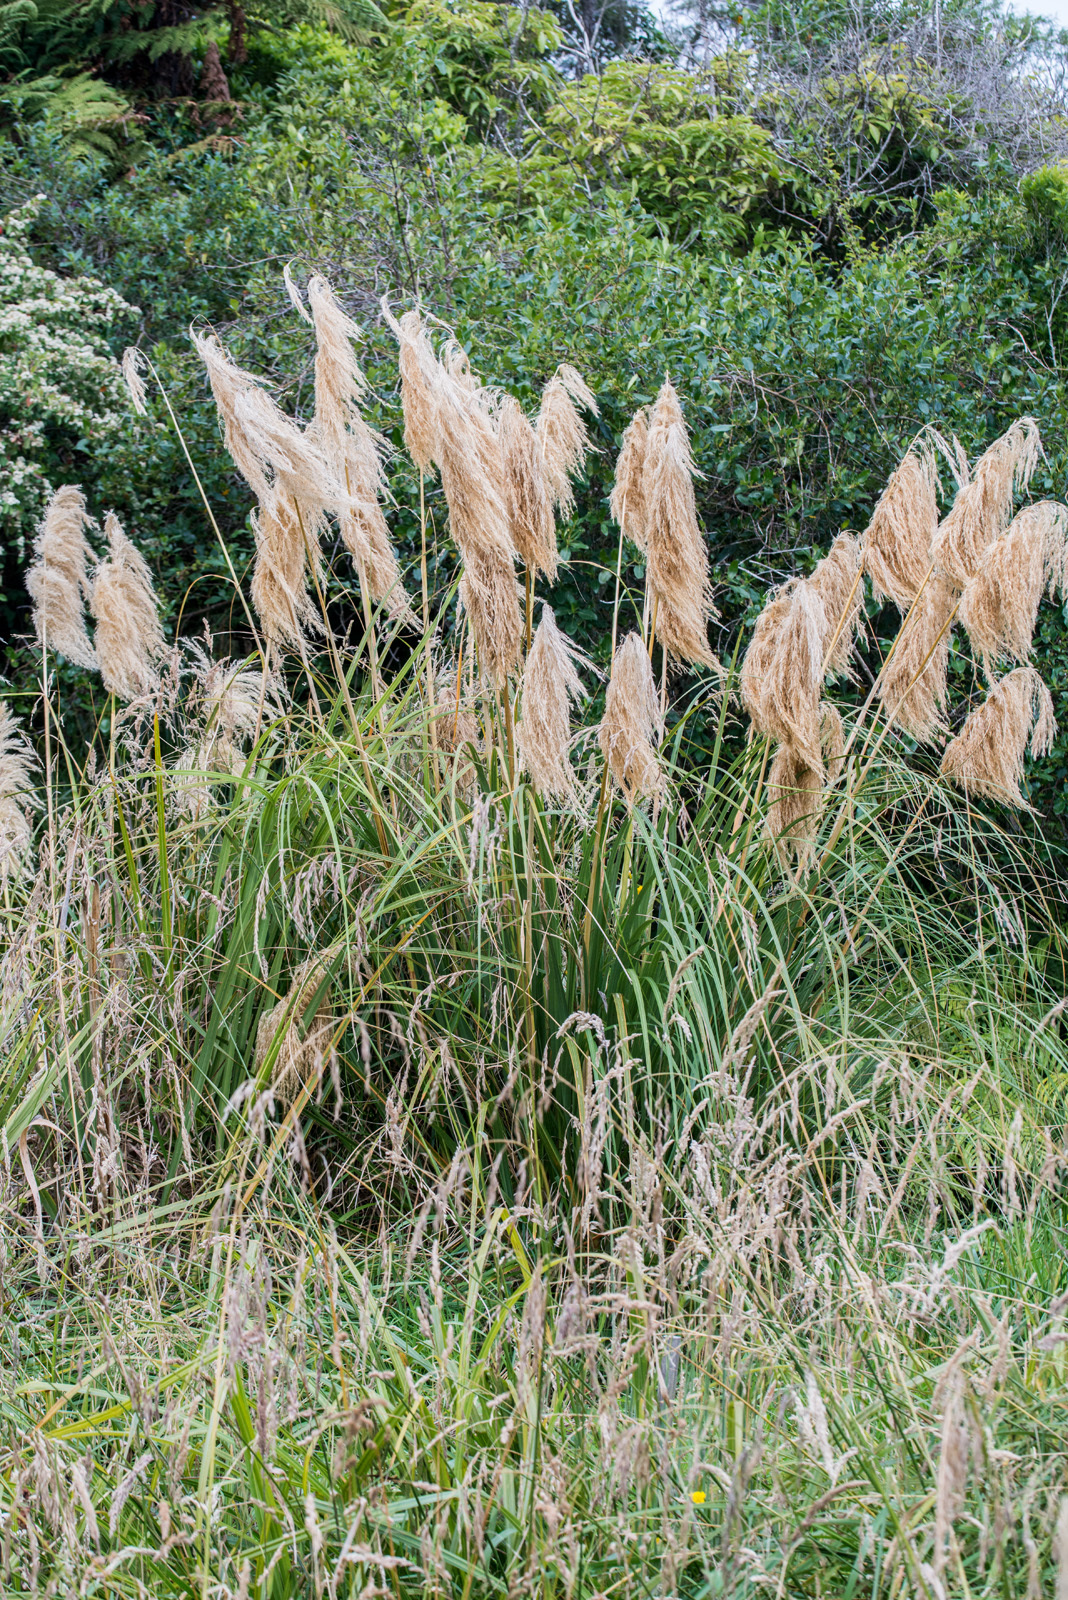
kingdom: Plantae
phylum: Tracheophyta
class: Liliopsida
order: Poales
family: Poaceae
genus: Austroderia
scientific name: Austroderia fulvida
